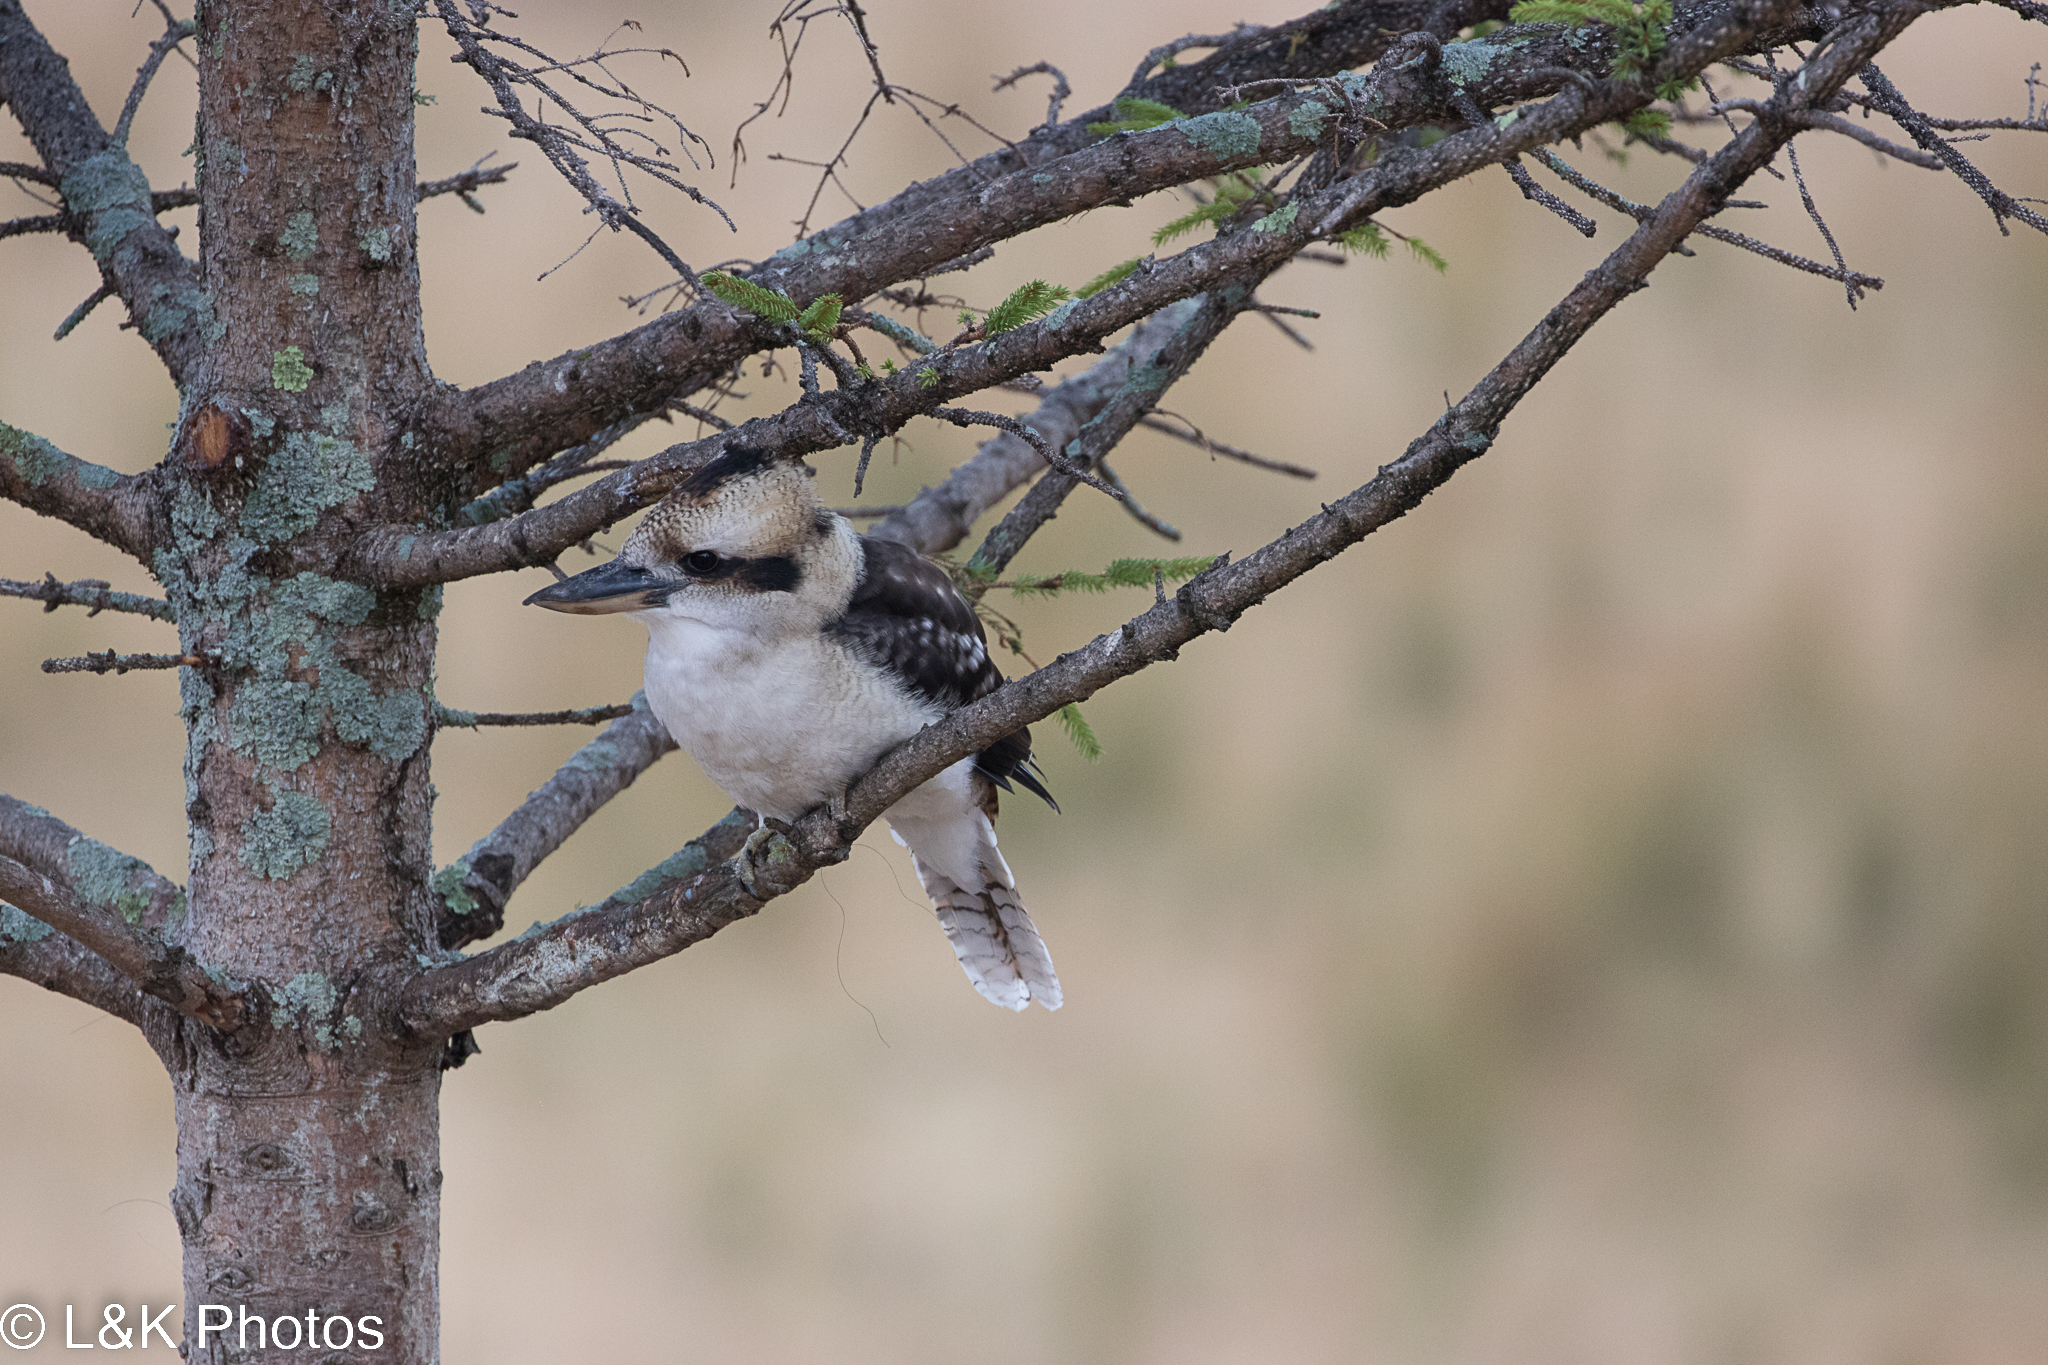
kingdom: Animalia
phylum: Chordata
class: Aves
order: Coraciiformes
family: Alcedinidae
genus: Dacelo
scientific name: Dacelo novaeguineae
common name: Laughing kookaburra
